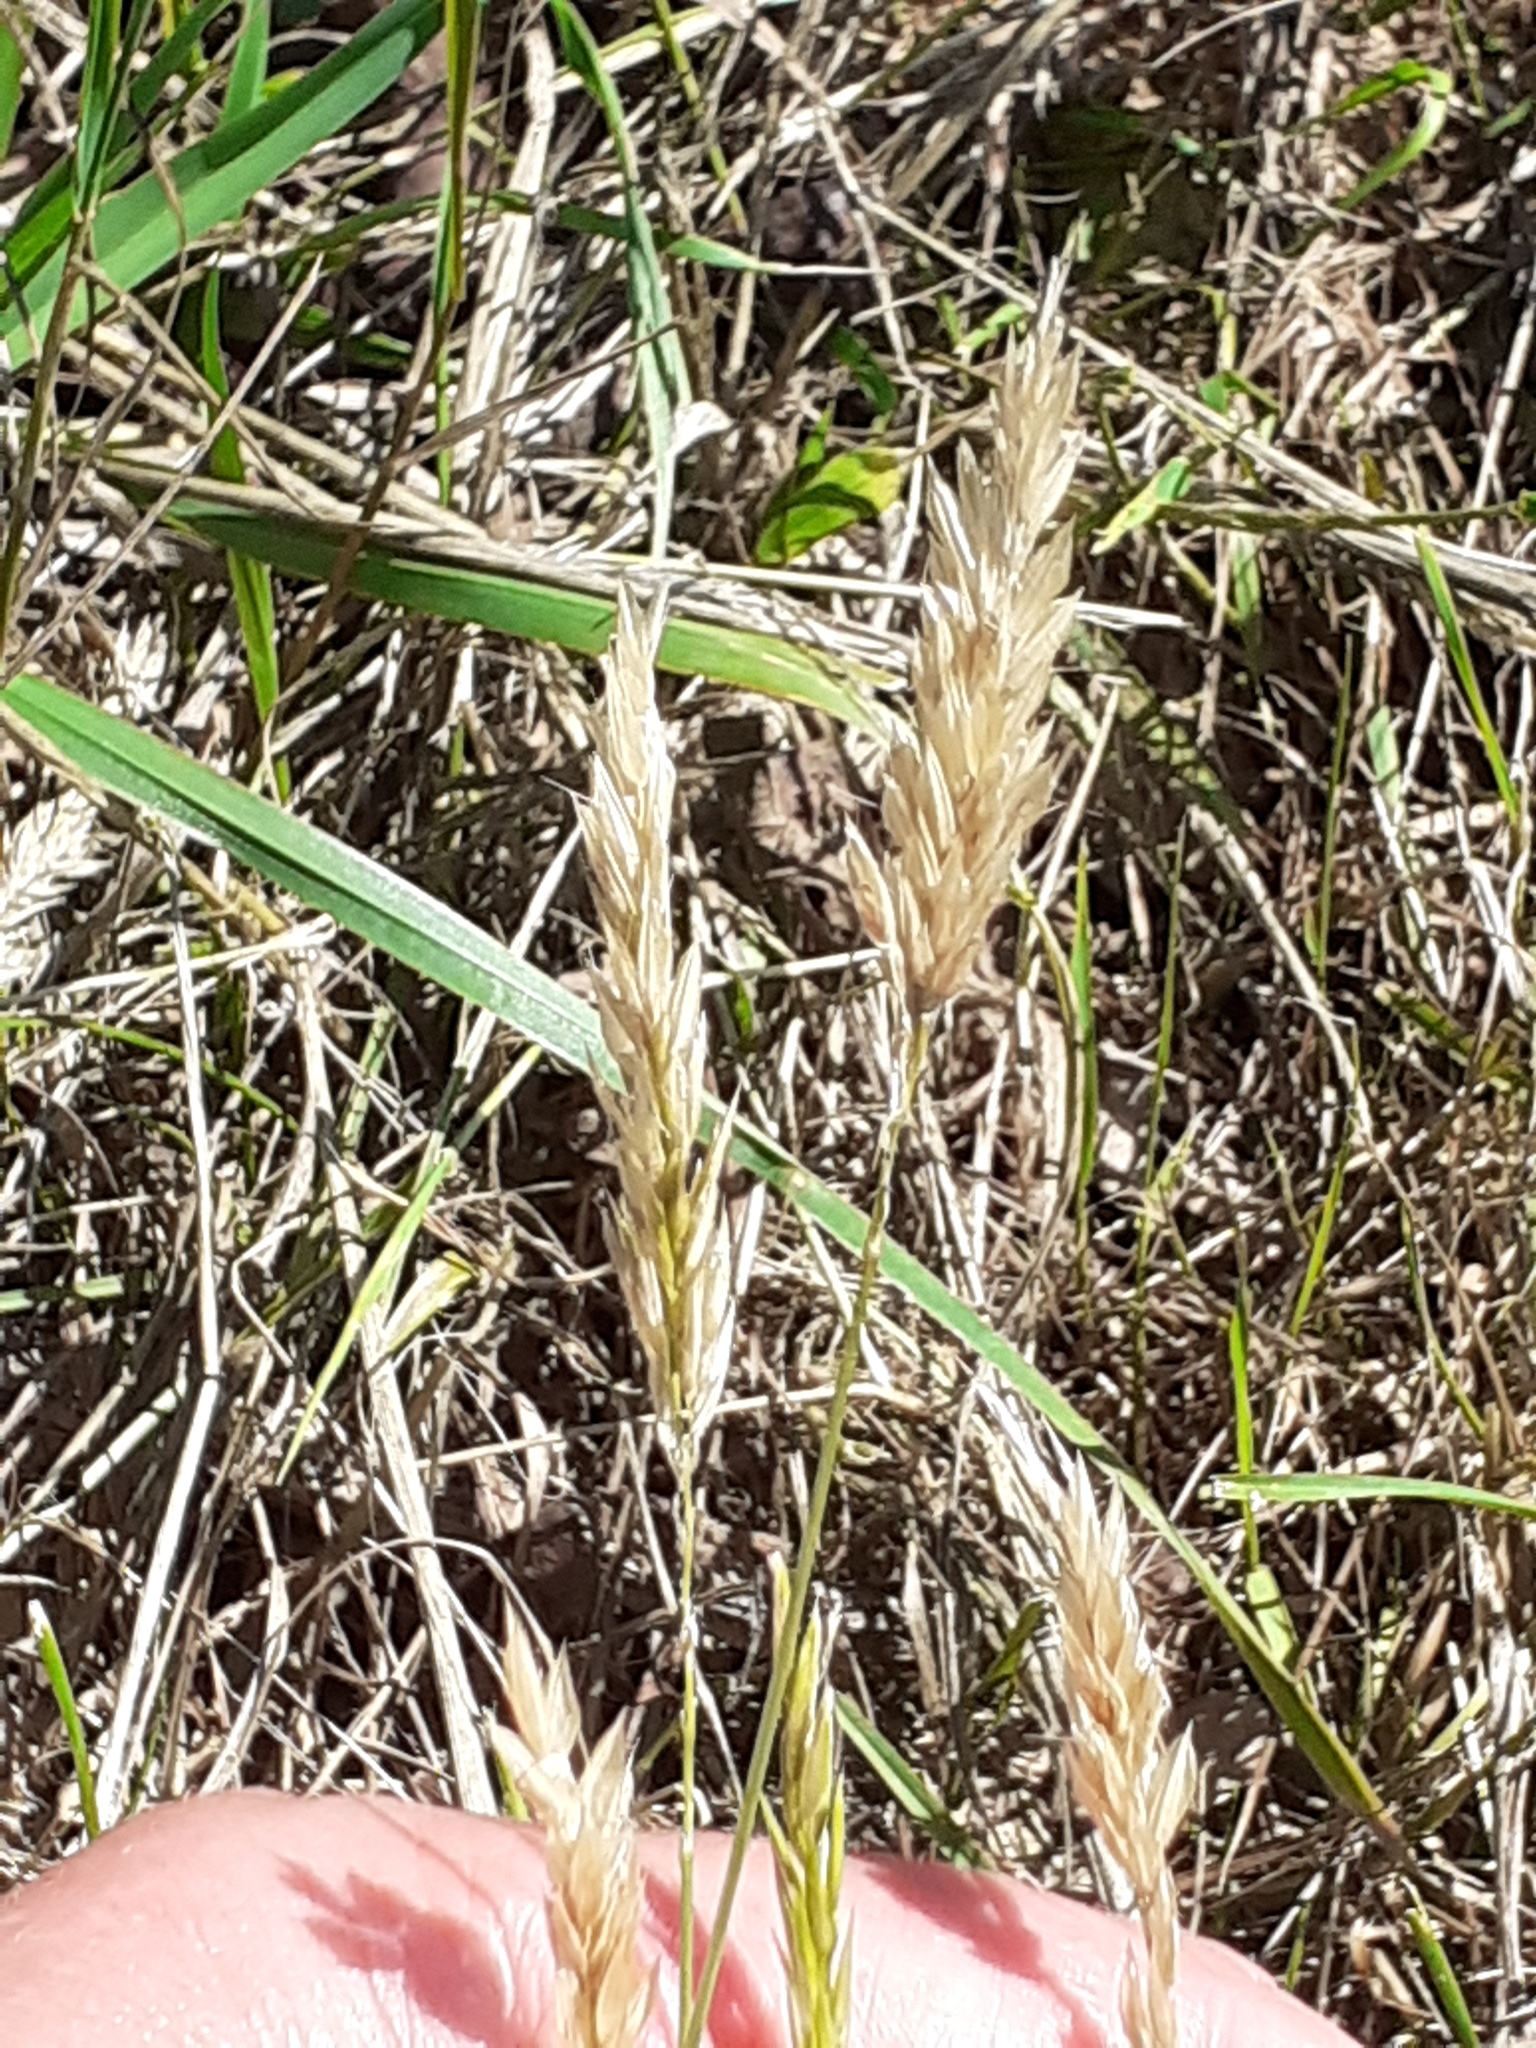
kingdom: Plantae
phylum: Tracheophyta
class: Liliopsida
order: Poales
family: Poaceae
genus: Anthoxanthum
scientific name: Anthoxanthum odoratum
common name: Sweet vernalgrass
